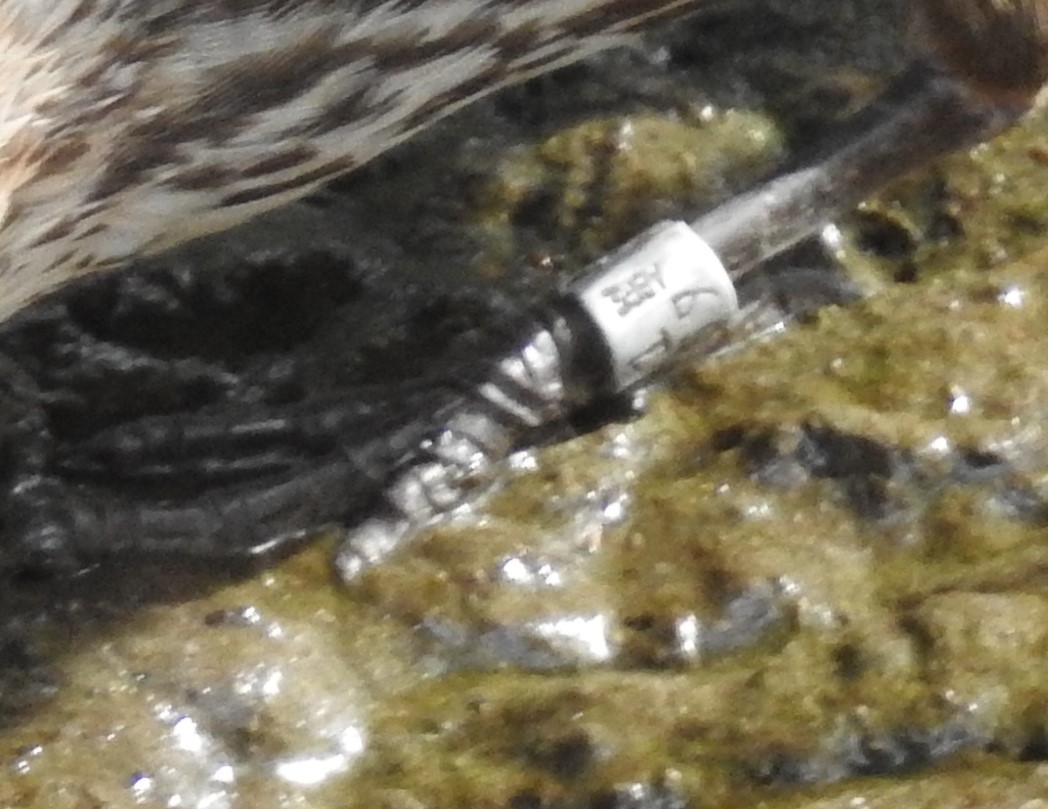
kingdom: Animalia
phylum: Chordata
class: Aves
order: Passeriformes
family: Icteridae
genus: Agelaius
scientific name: Agelaius phoeniceus
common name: Red-winged blackbird
